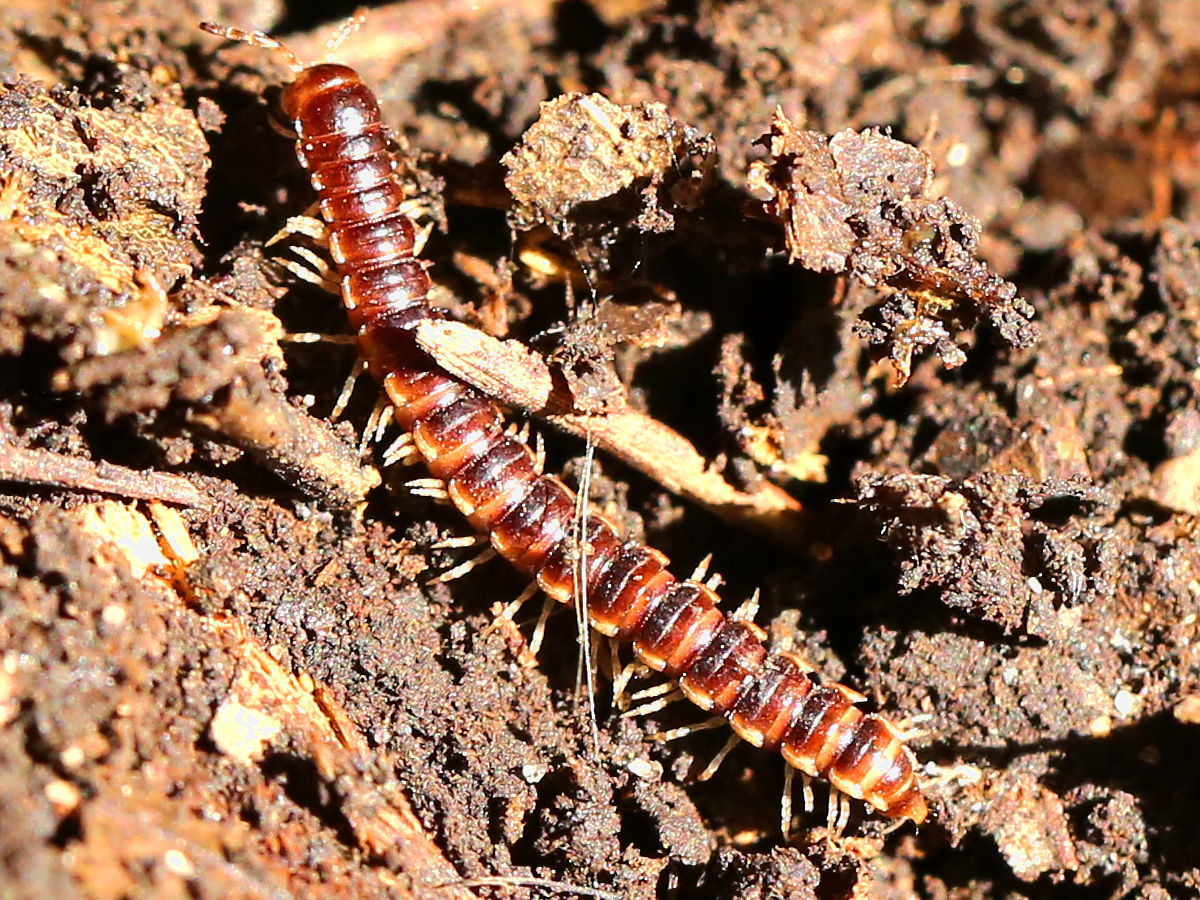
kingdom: Animalia
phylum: Arthropoda
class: Diplopoda
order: Polydesmida
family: Paradoxosomatidae
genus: Oxidus
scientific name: Oxidus gracilis
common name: Greenhouse millipede
